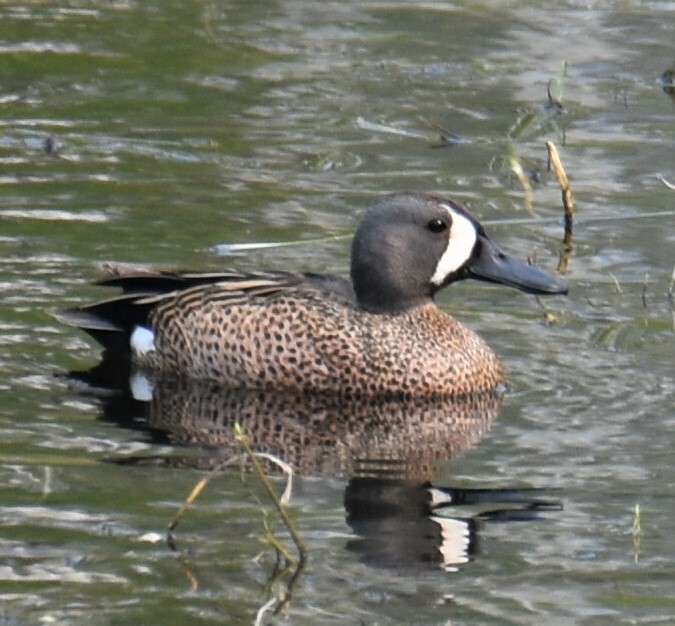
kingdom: Animalia
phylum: Chordata
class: Aves
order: Anseriformes
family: Anatidae
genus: Spatula
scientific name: Spatula discors
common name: Blue-winged teal
